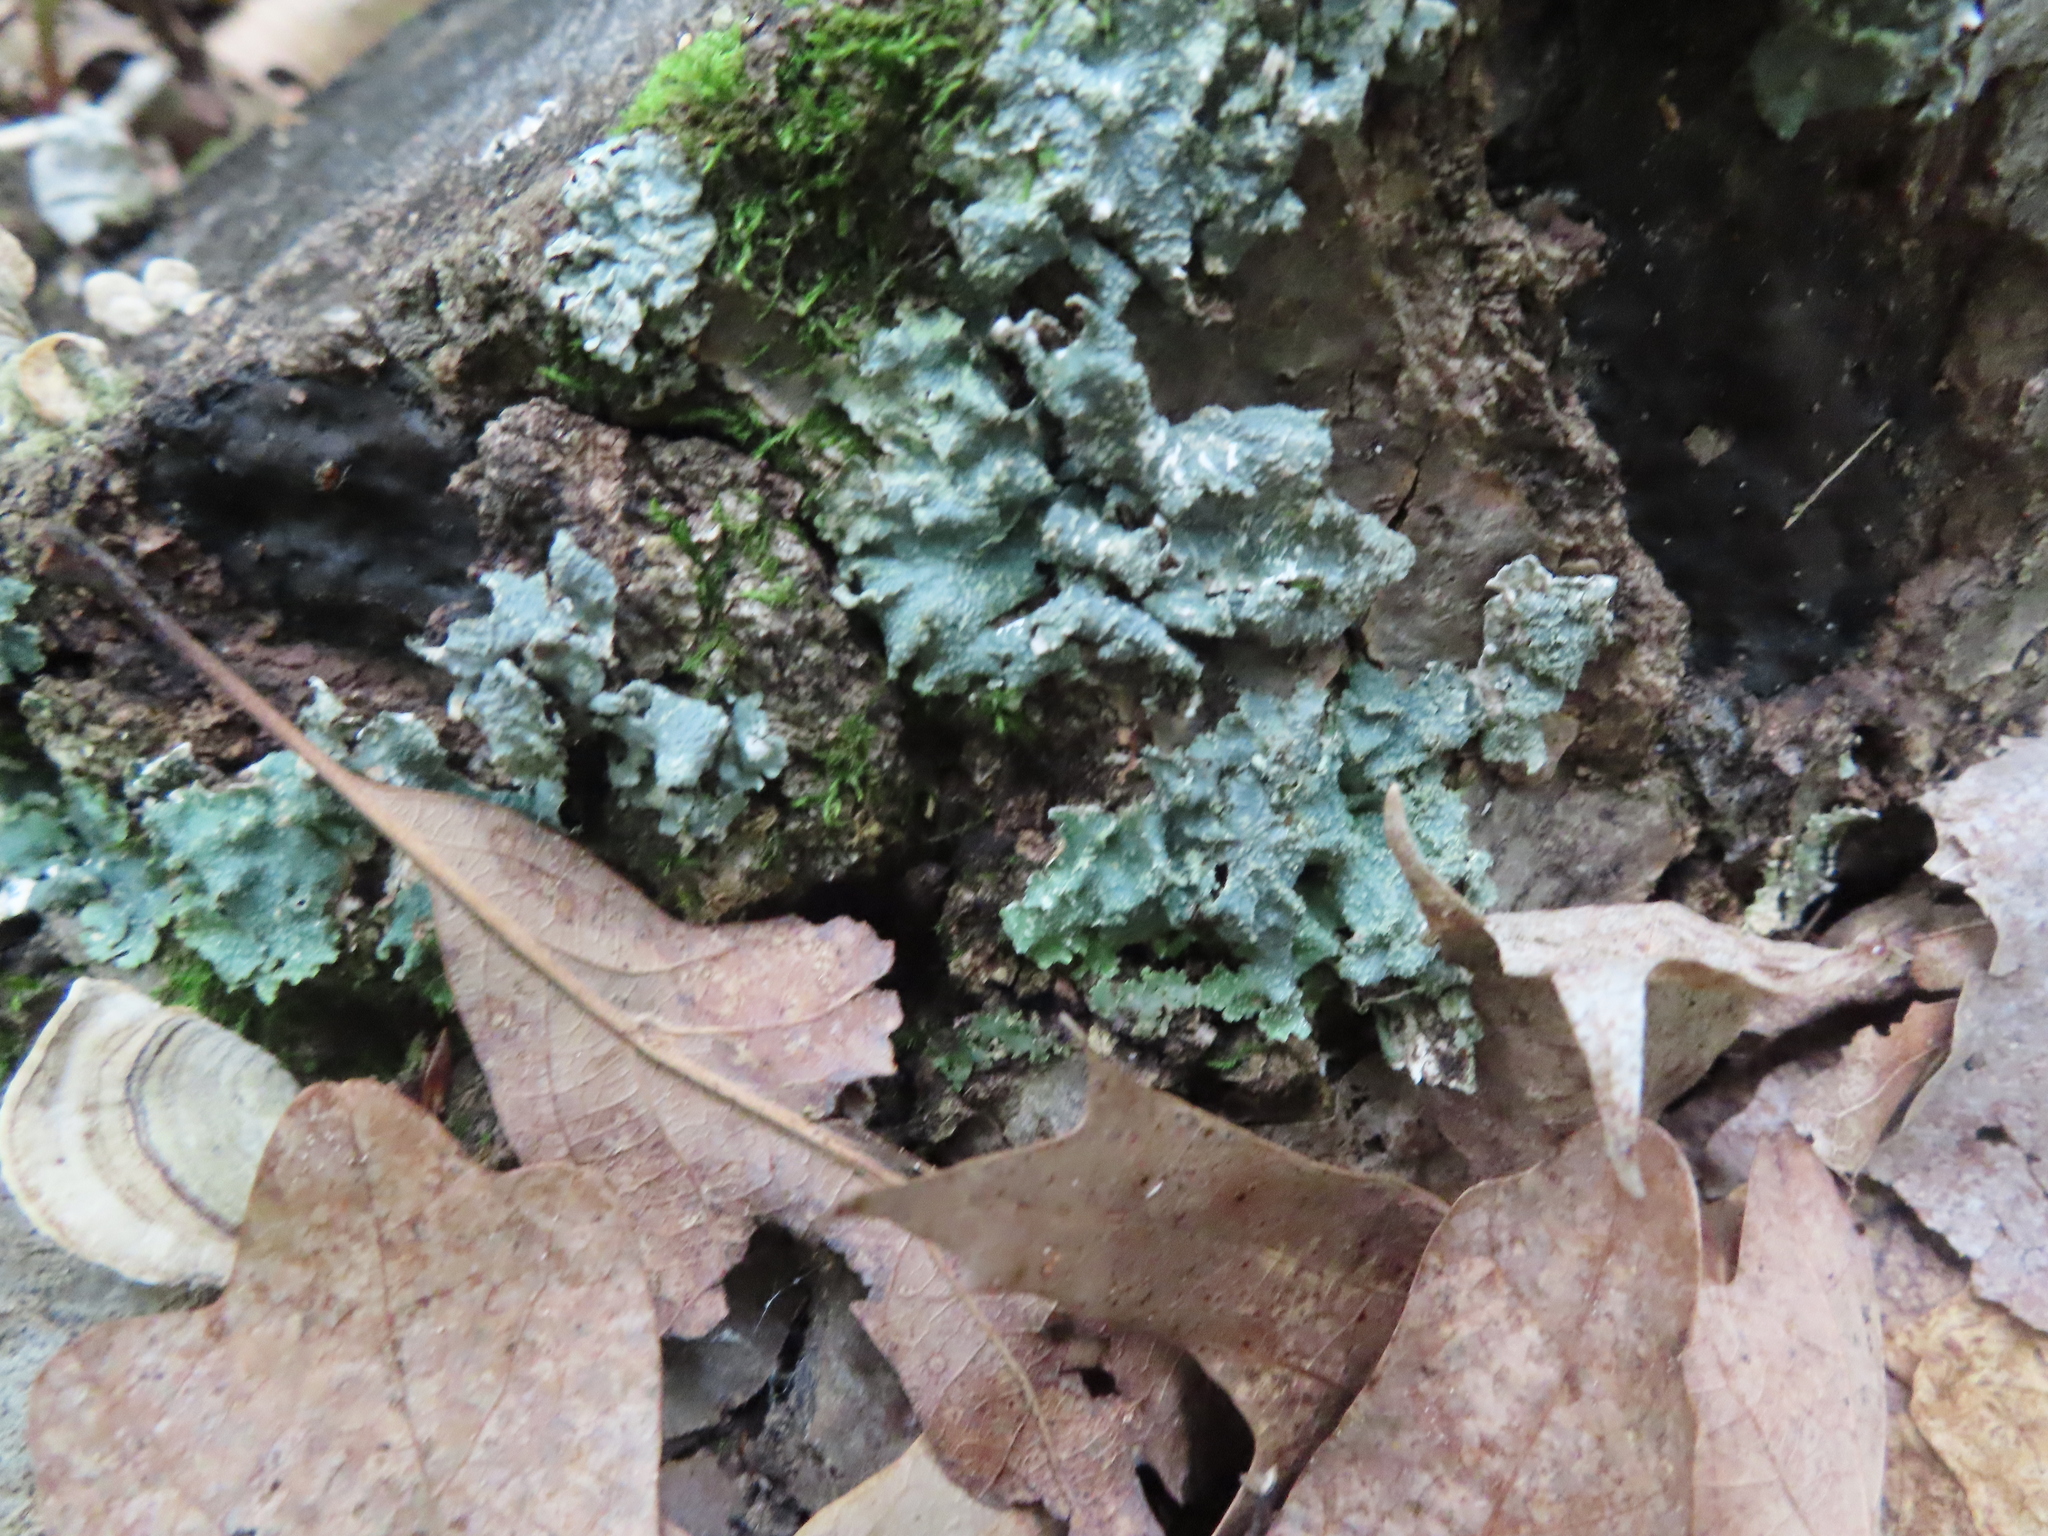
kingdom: Fungi
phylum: Ascomycota
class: Lecanoromycetes
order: Lecanorales
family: Parmeliaceae
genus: Punctelia
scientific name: Punctelia rudecta
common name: Rough speckled shield lichen
